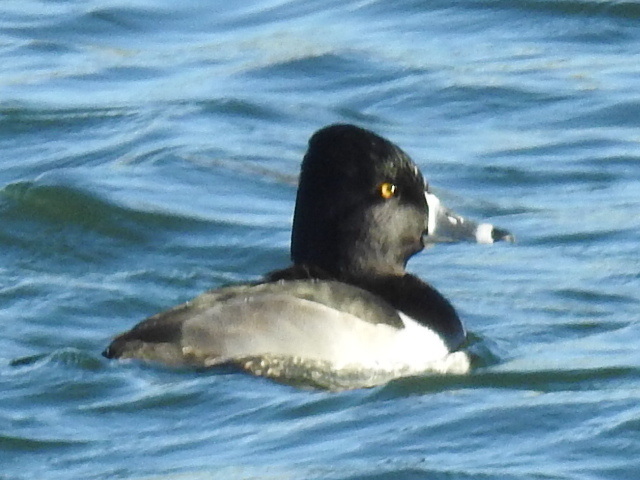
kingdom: Animalia
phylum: Chordata
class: Aves
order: Anseriformes
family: Anatidae
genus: Aythya
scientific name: Aythya collaris
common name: Ring-necked duck
